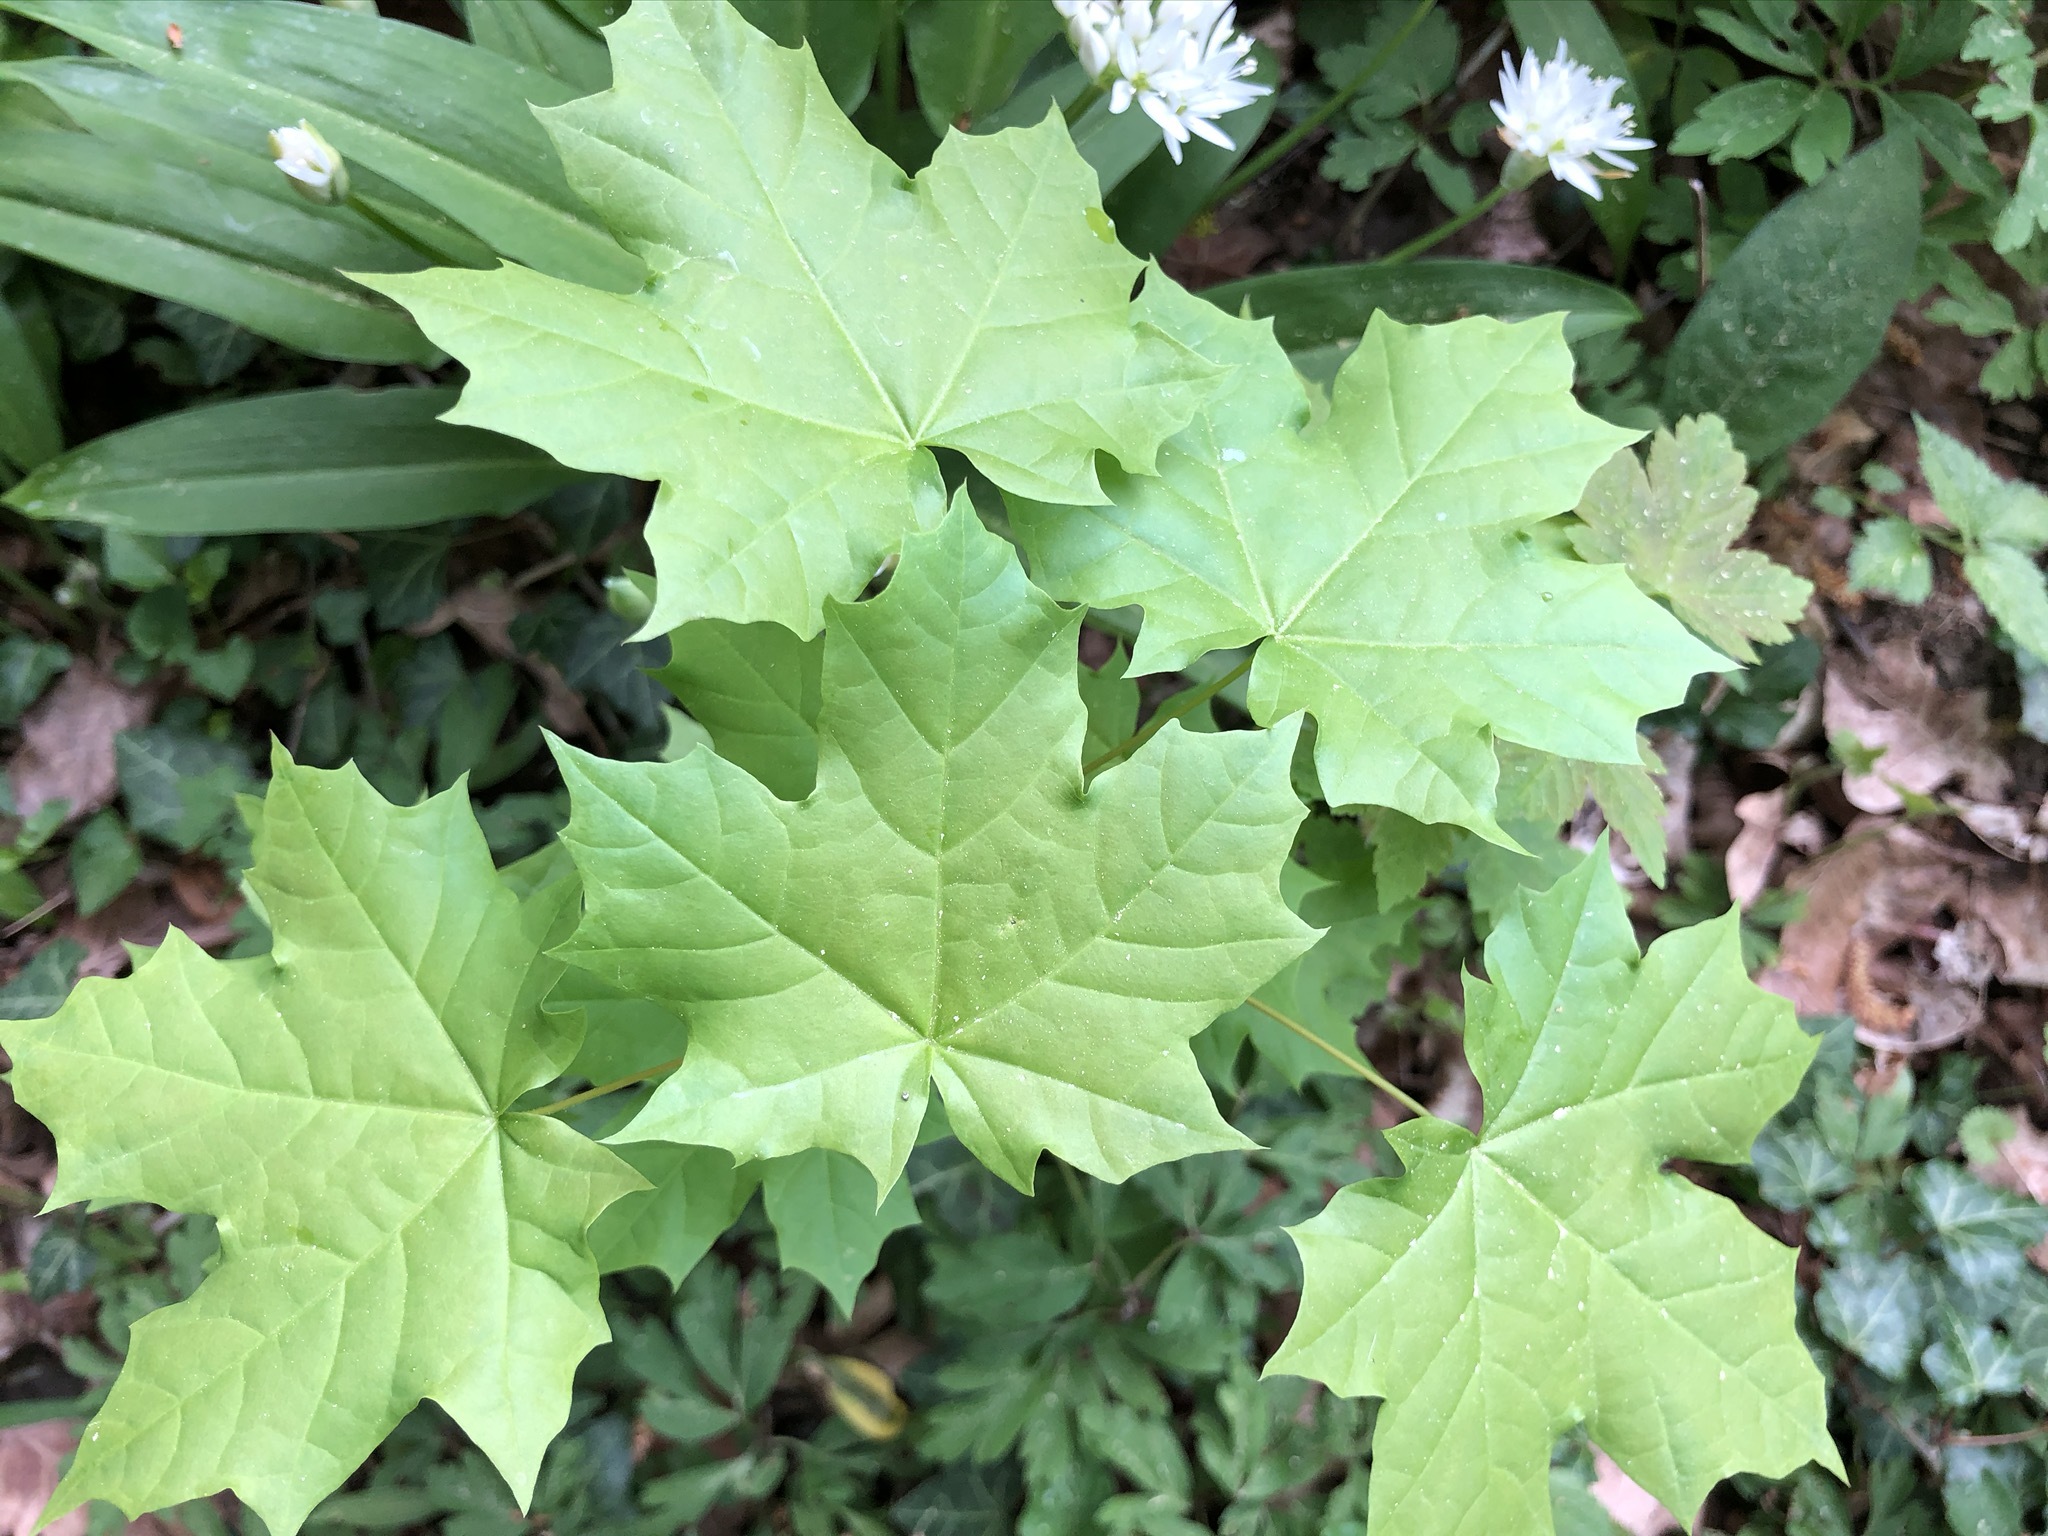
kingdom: Plantae
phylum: Tracheophyta
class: Magnoliopsida
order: Sapindales
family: Sapindaceae
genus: Acer
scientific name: Acer platanoides
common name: Norway maple
